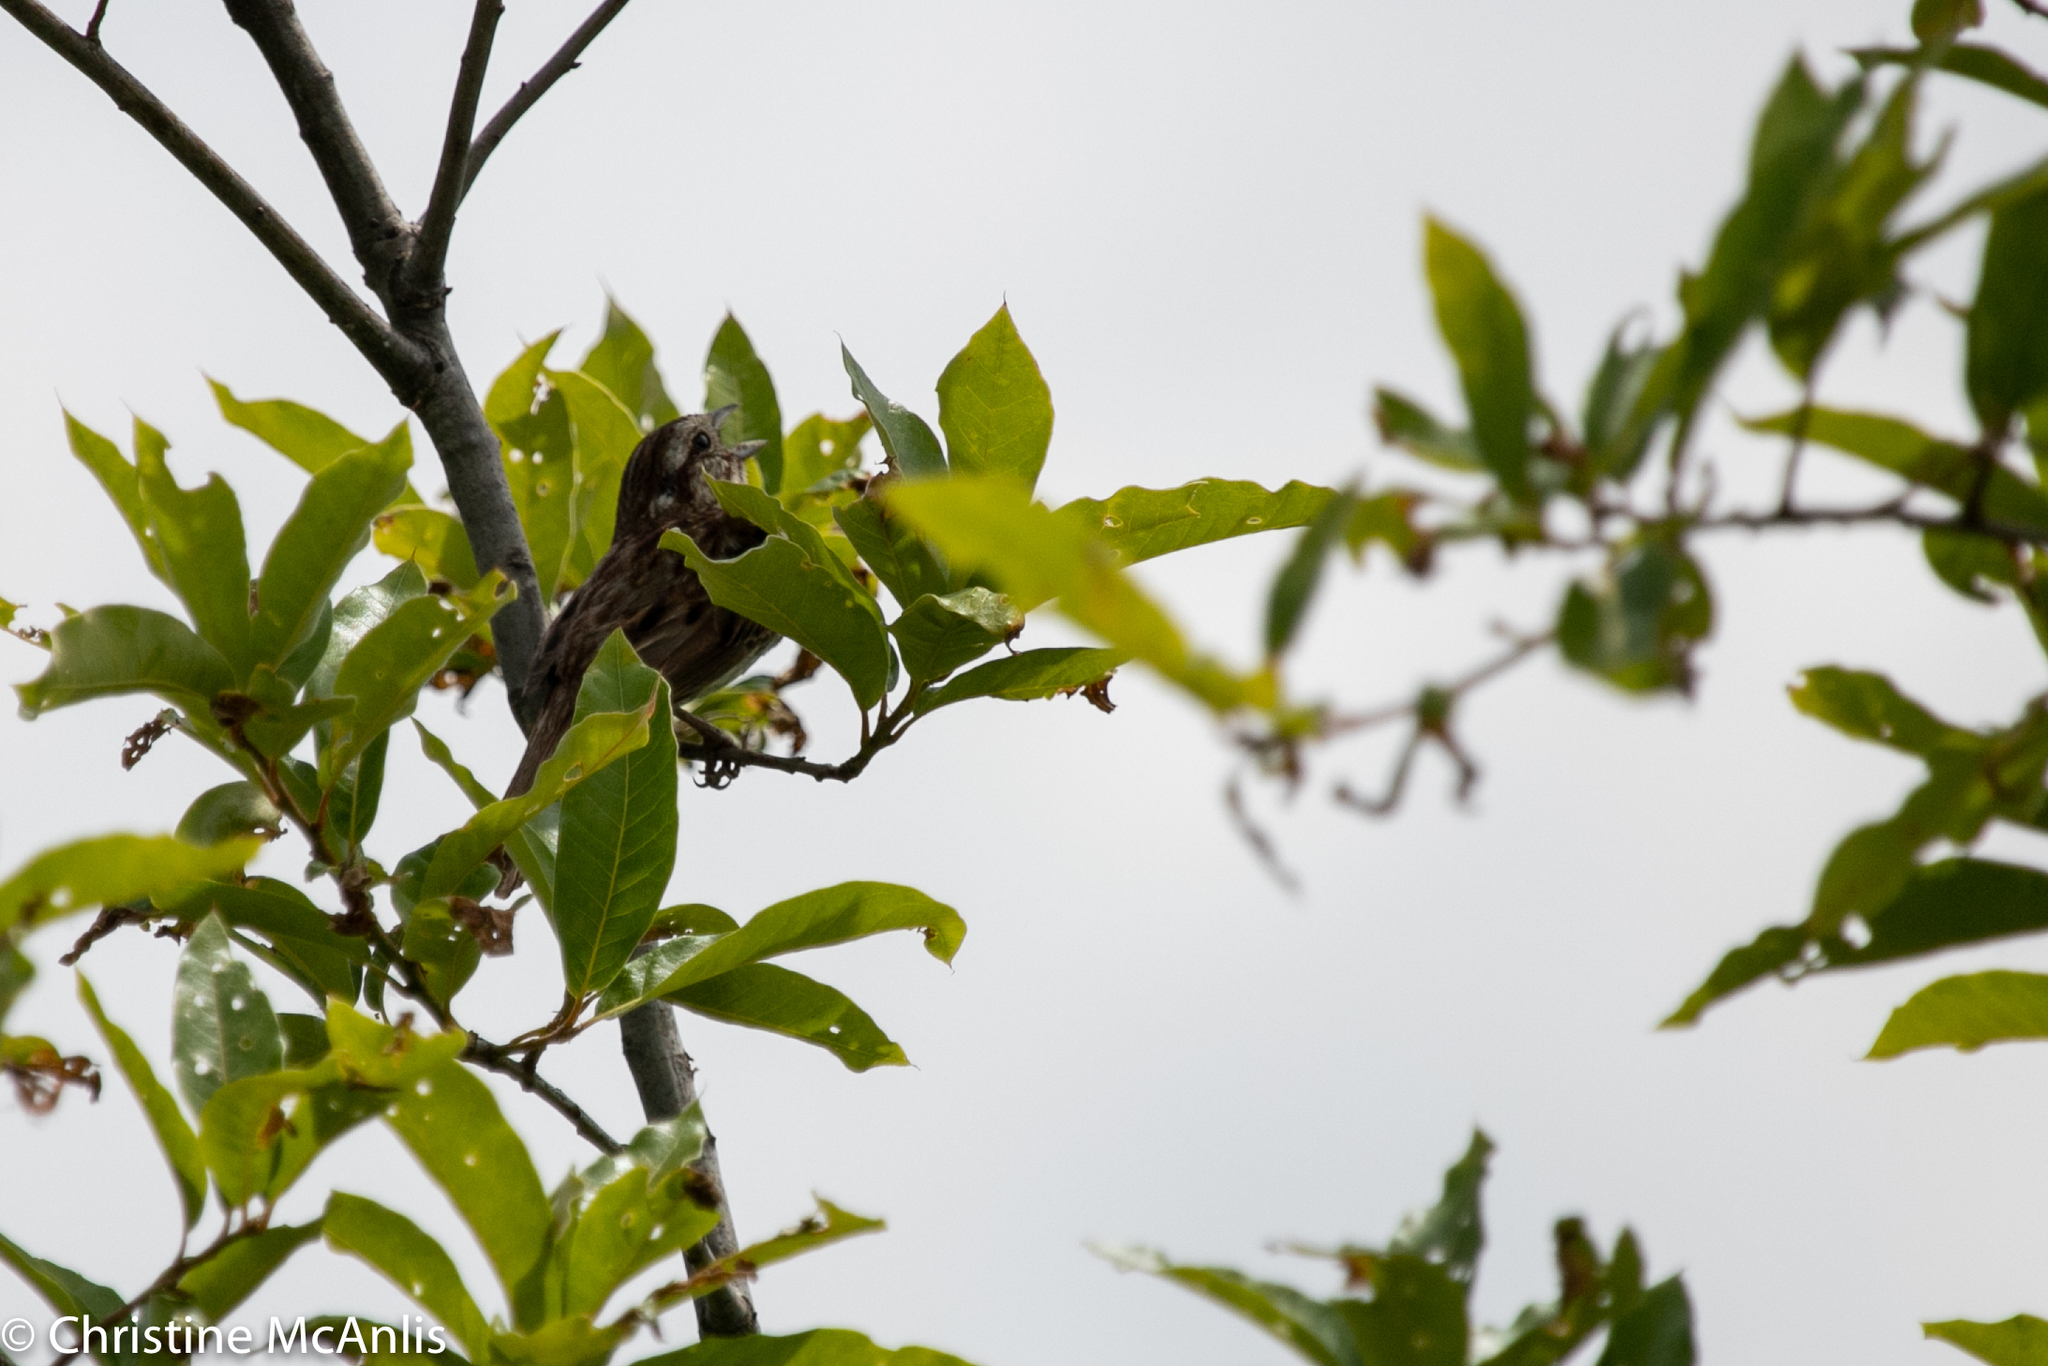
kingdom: Animalia
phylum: Chordata
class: Aves
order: Passeriformes
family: Passerellidae
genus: Melospiza
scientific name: Melospiza melodia
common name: Song sparrow
